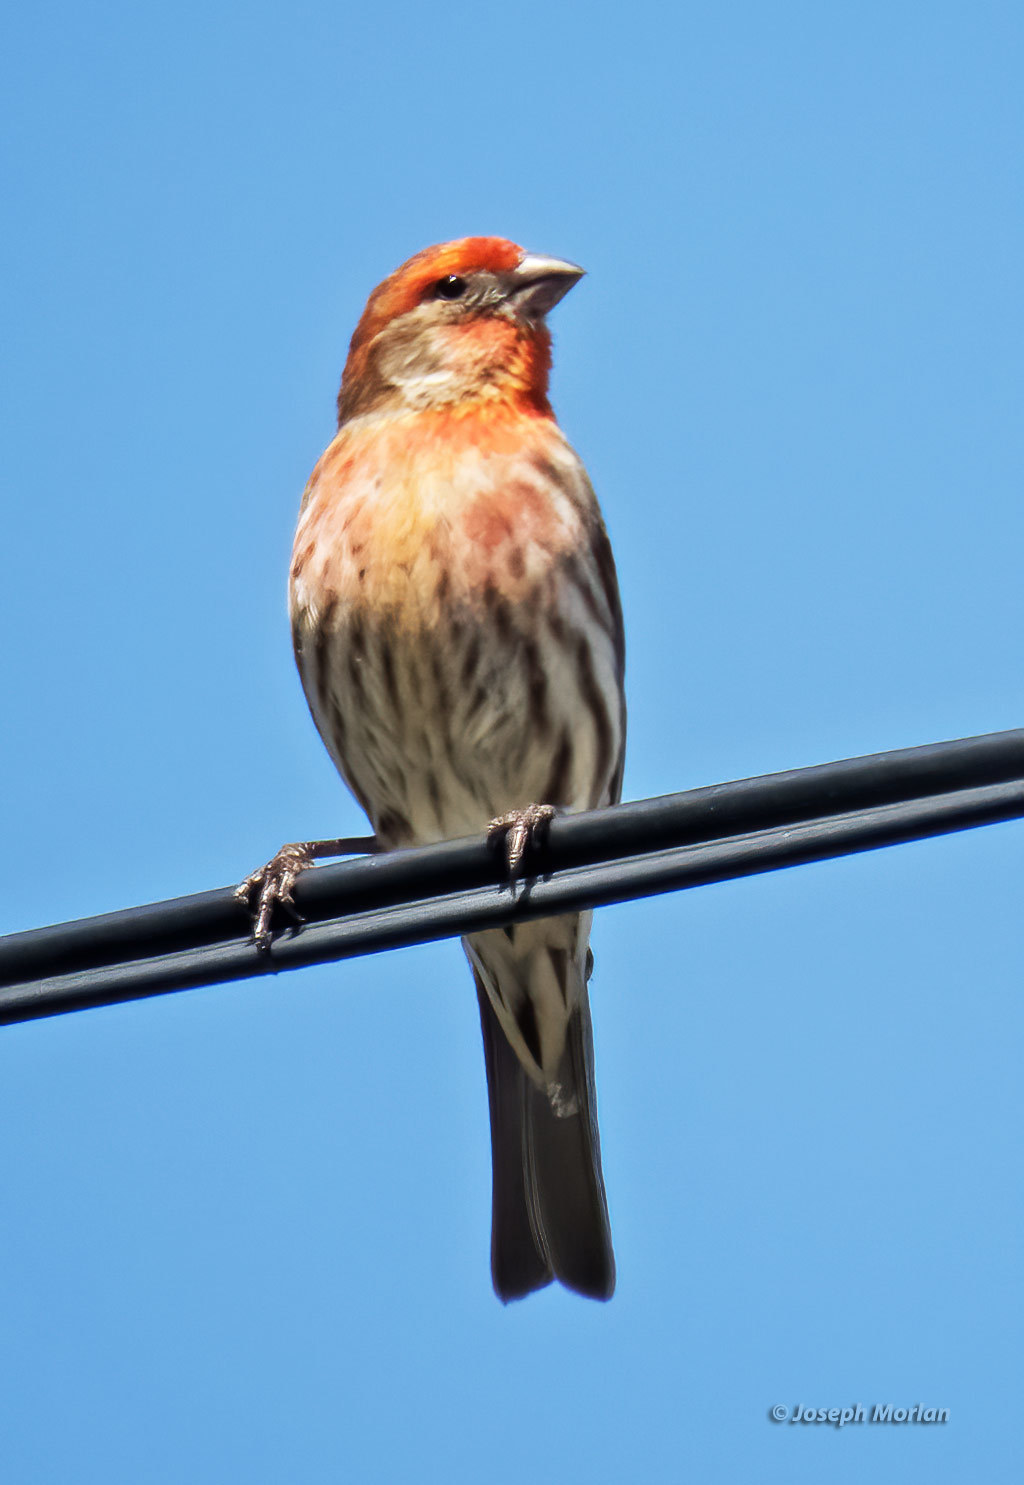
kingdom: Animalia
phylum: Chordata
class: Aves
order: Passeriformes
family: Fringillidae
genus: Haemorhous
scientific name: Haemorhous mexicanus
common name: House finch
